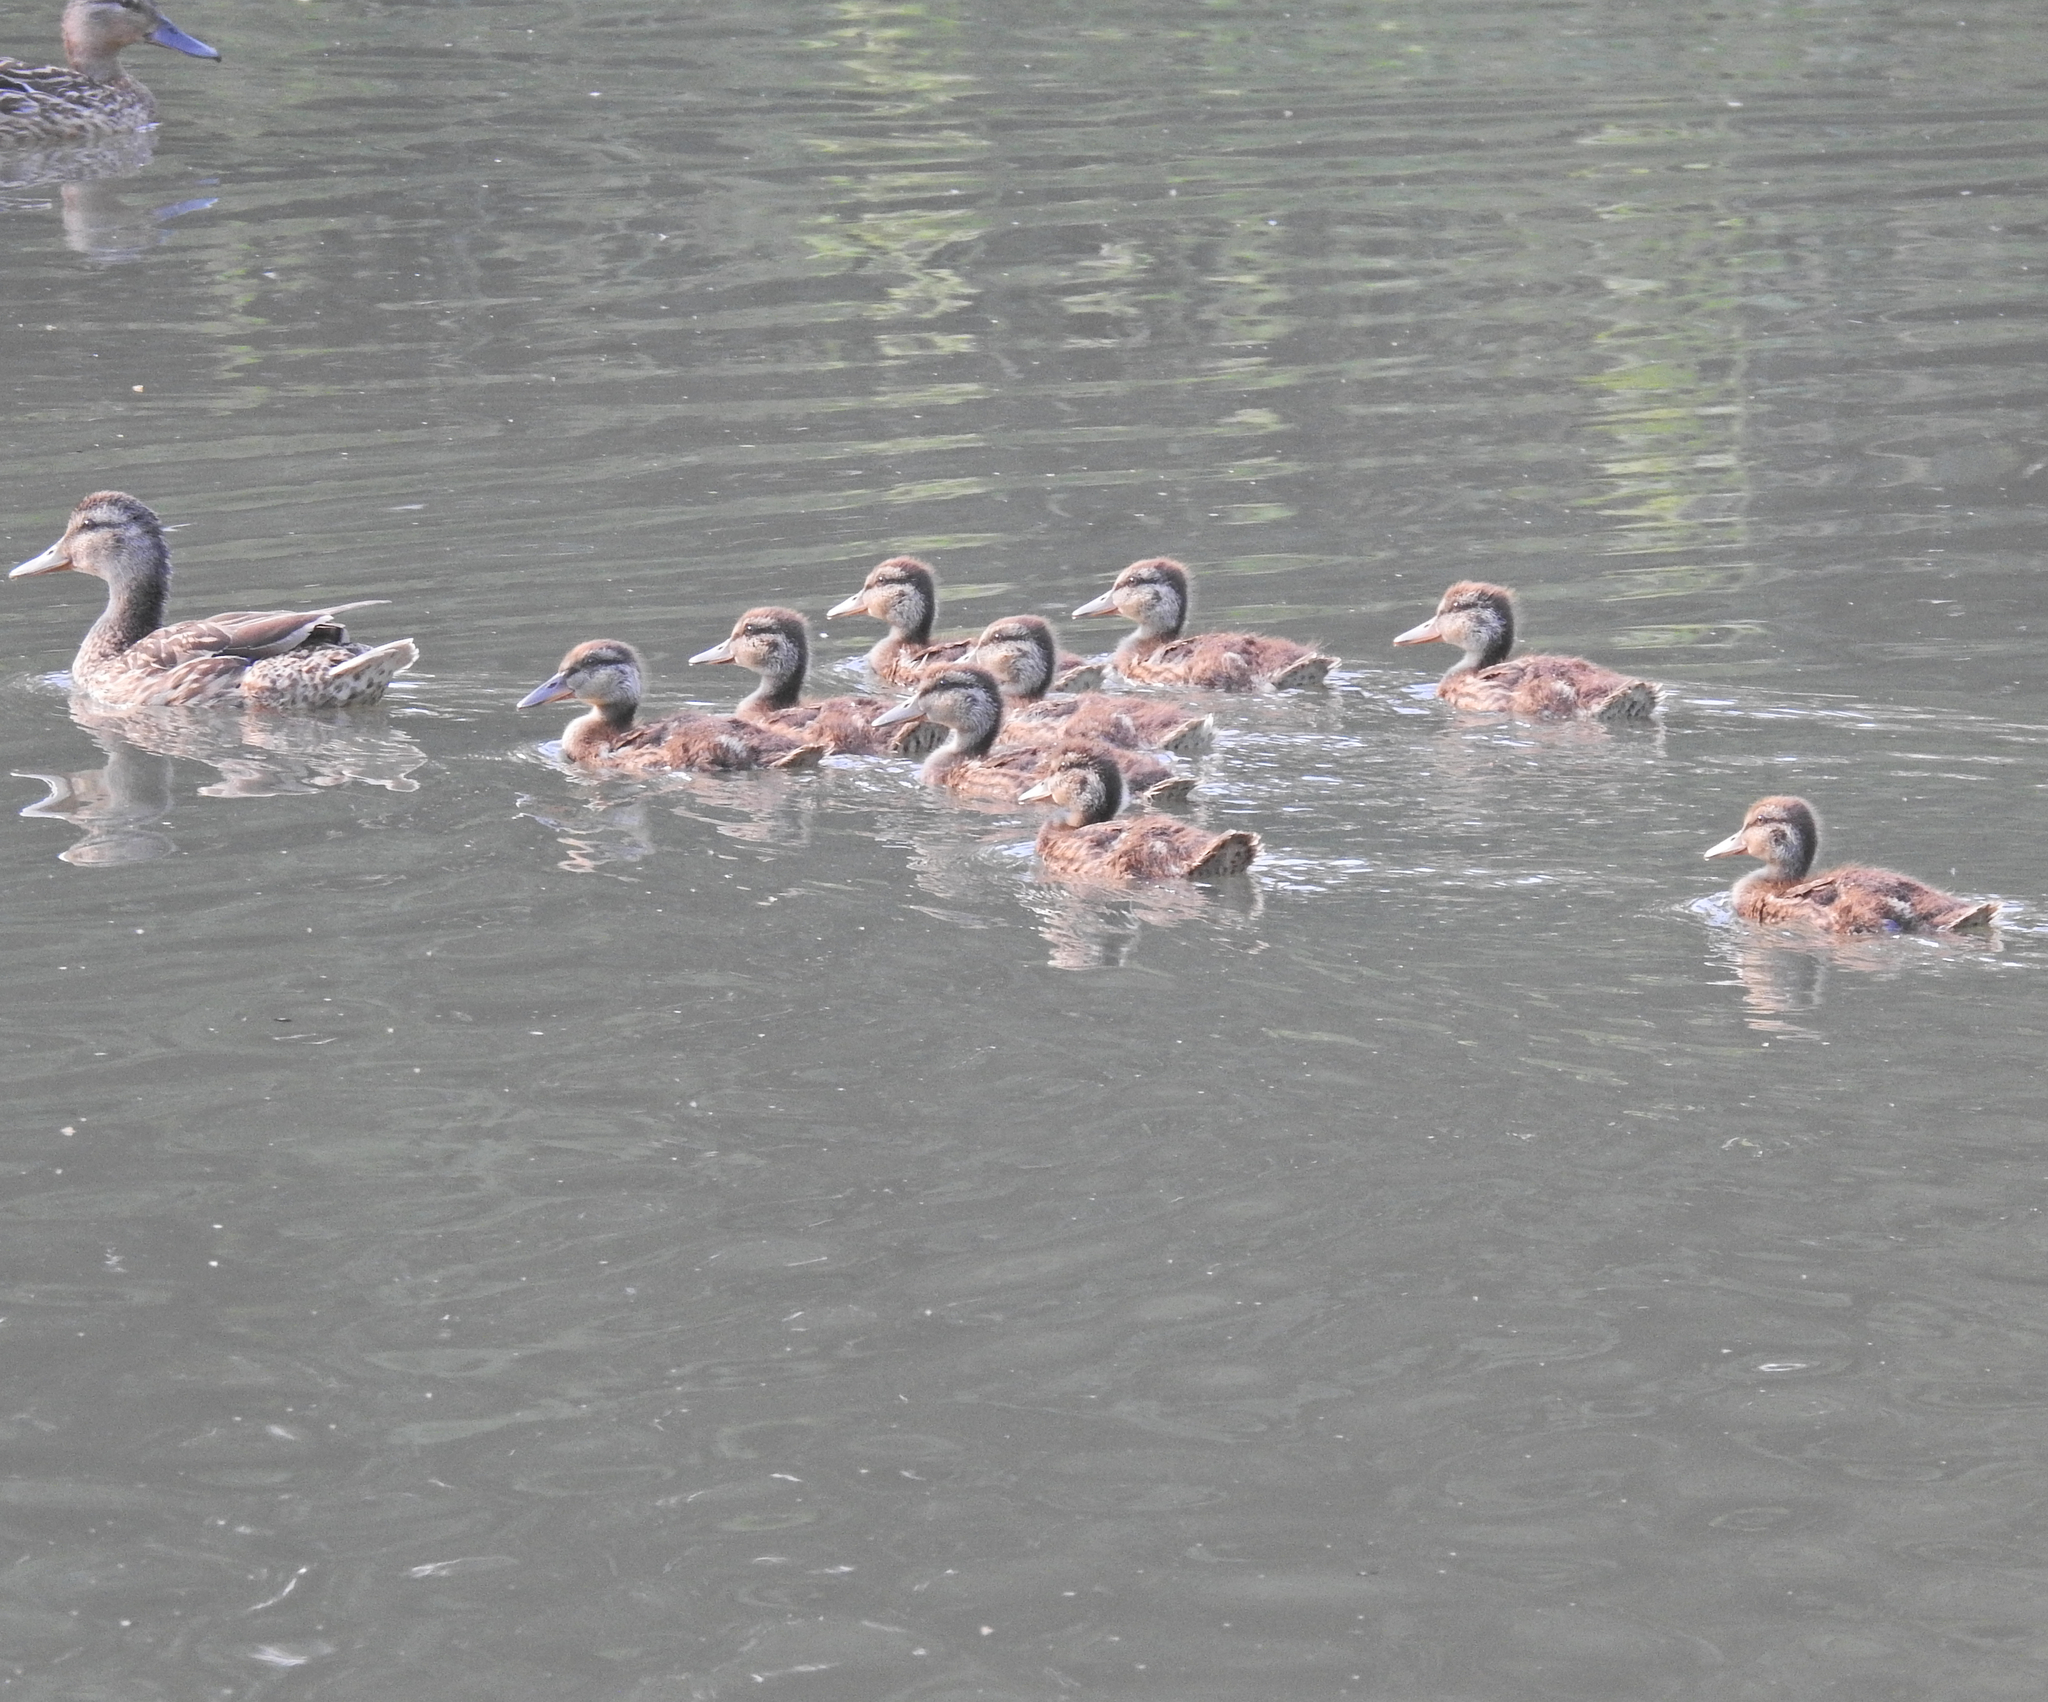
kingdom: Animalia
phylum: Chordata
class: Aves
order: Anseriformes
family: Anatidae
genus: Anas
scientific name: Anas platyrhynchos
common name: Mallard
